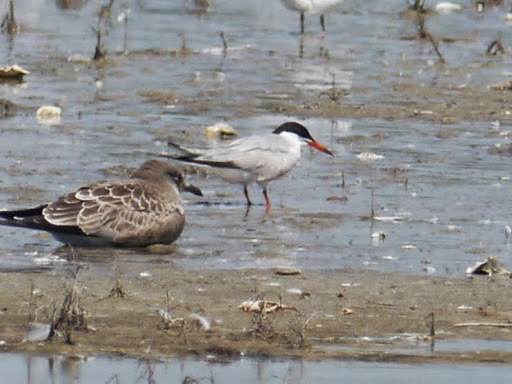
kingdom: Animalia
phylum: Chordata
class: Aves
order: Charadriiformes
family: Laridae
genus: Sterna
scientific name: Sterna hirundo
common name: Common tern
